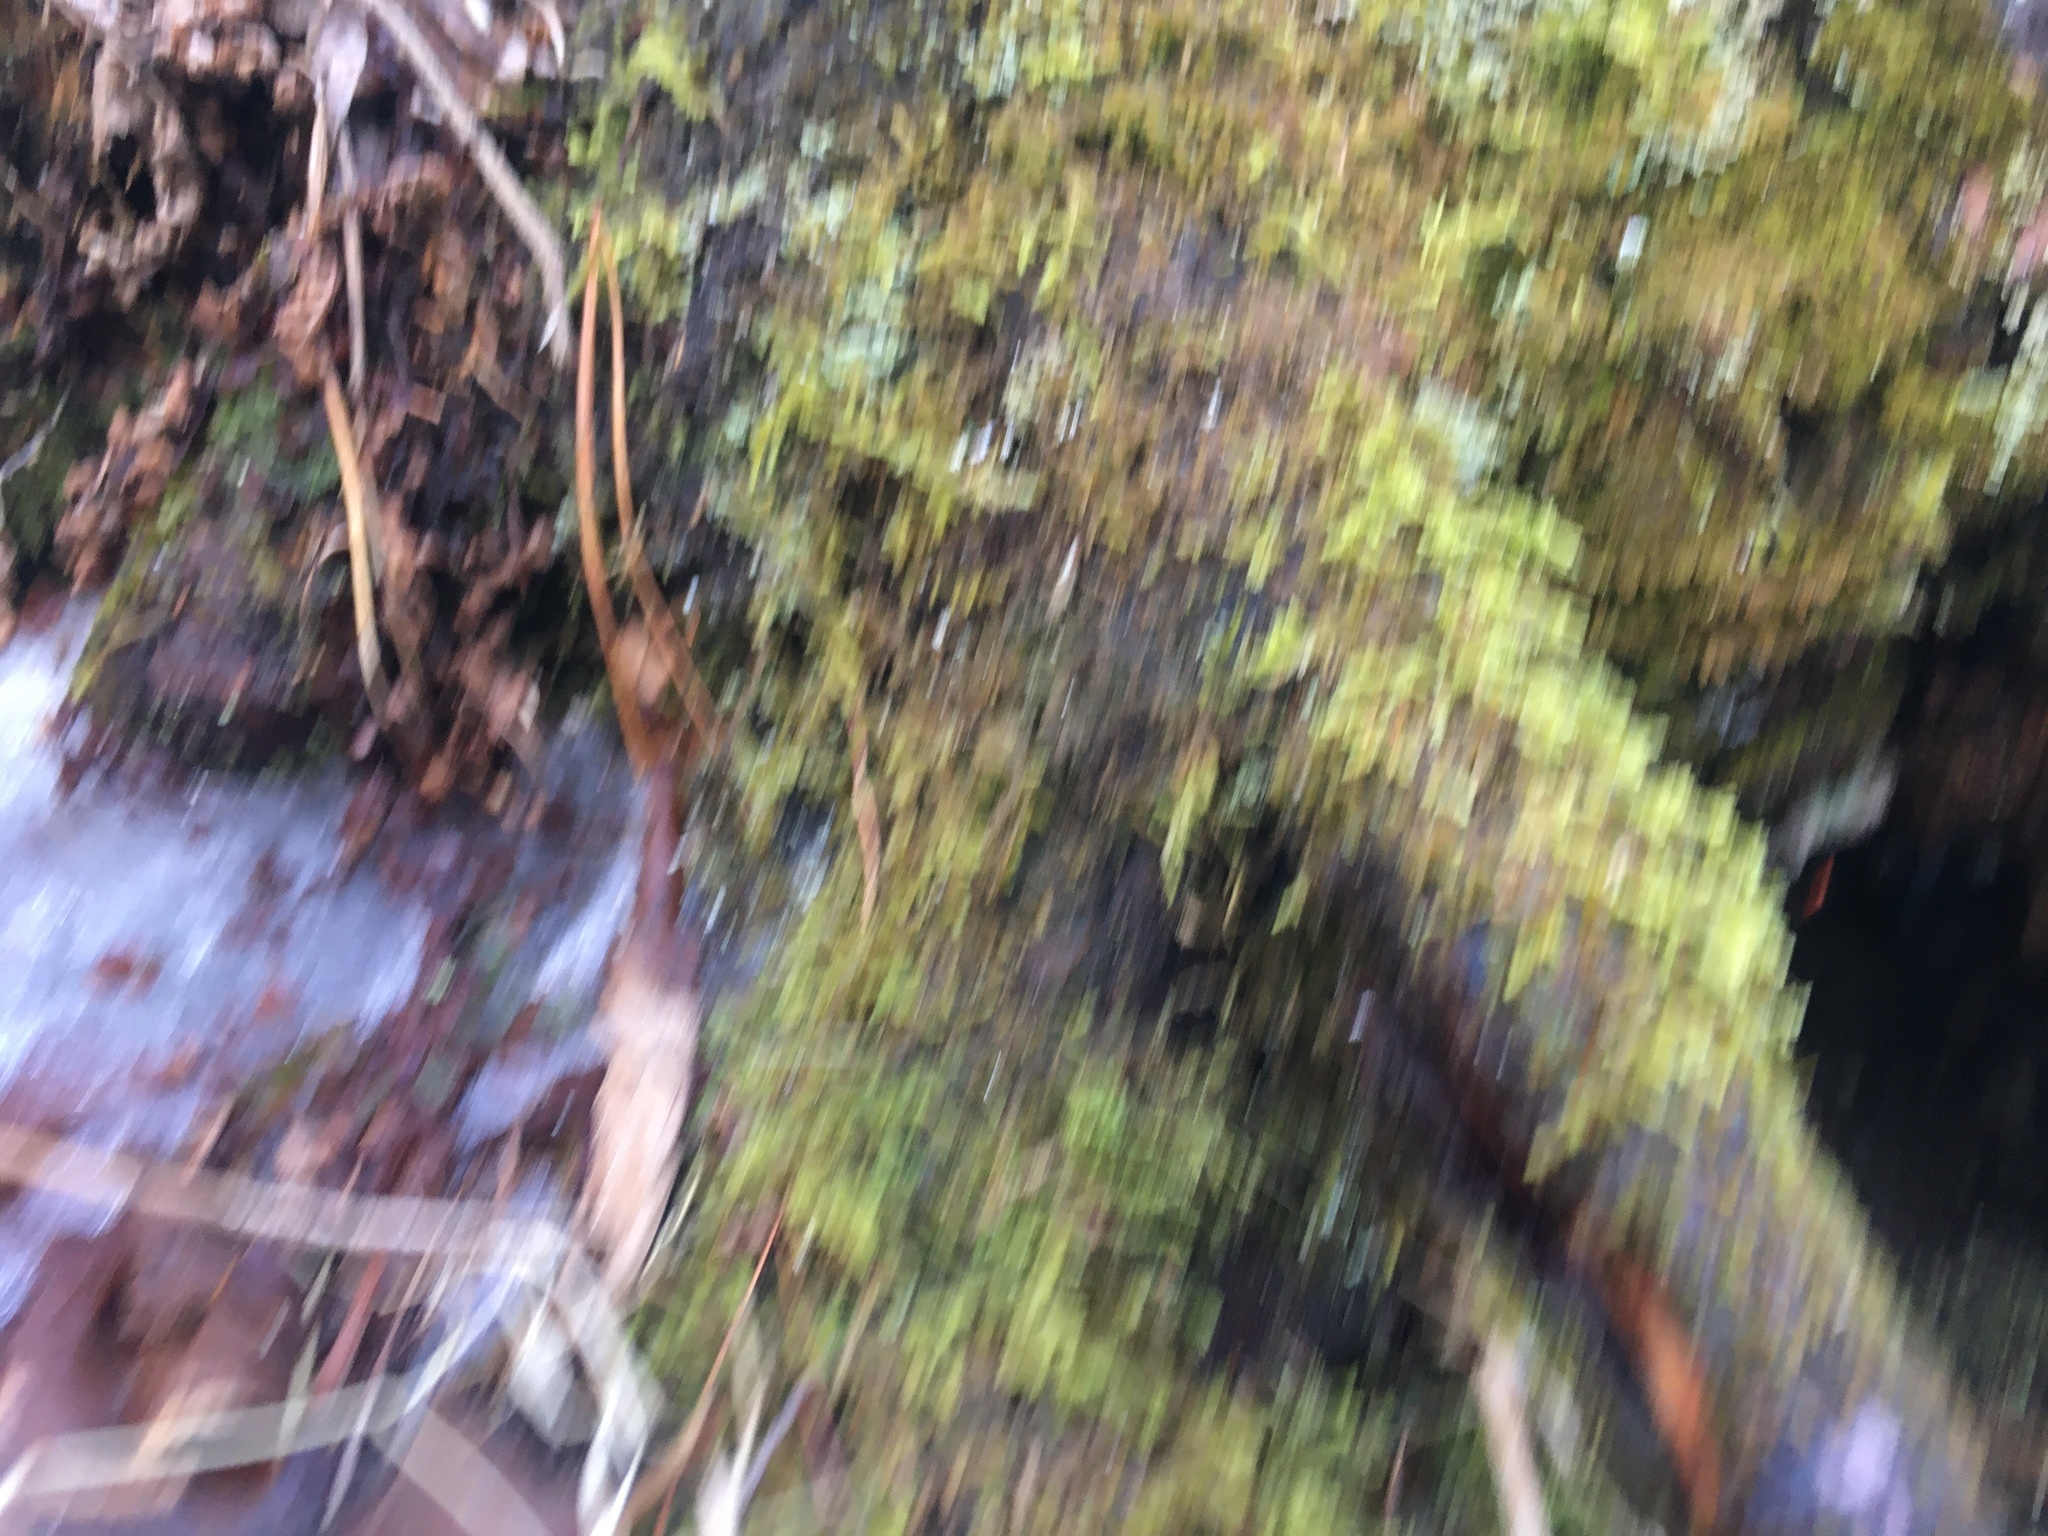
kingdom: Plantae
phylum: Bryophyta
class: Bryopsida
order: Hypnales
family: Callicladiaceae
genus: Callicladium
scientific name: Callicladium imponens
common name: Brocade moss
